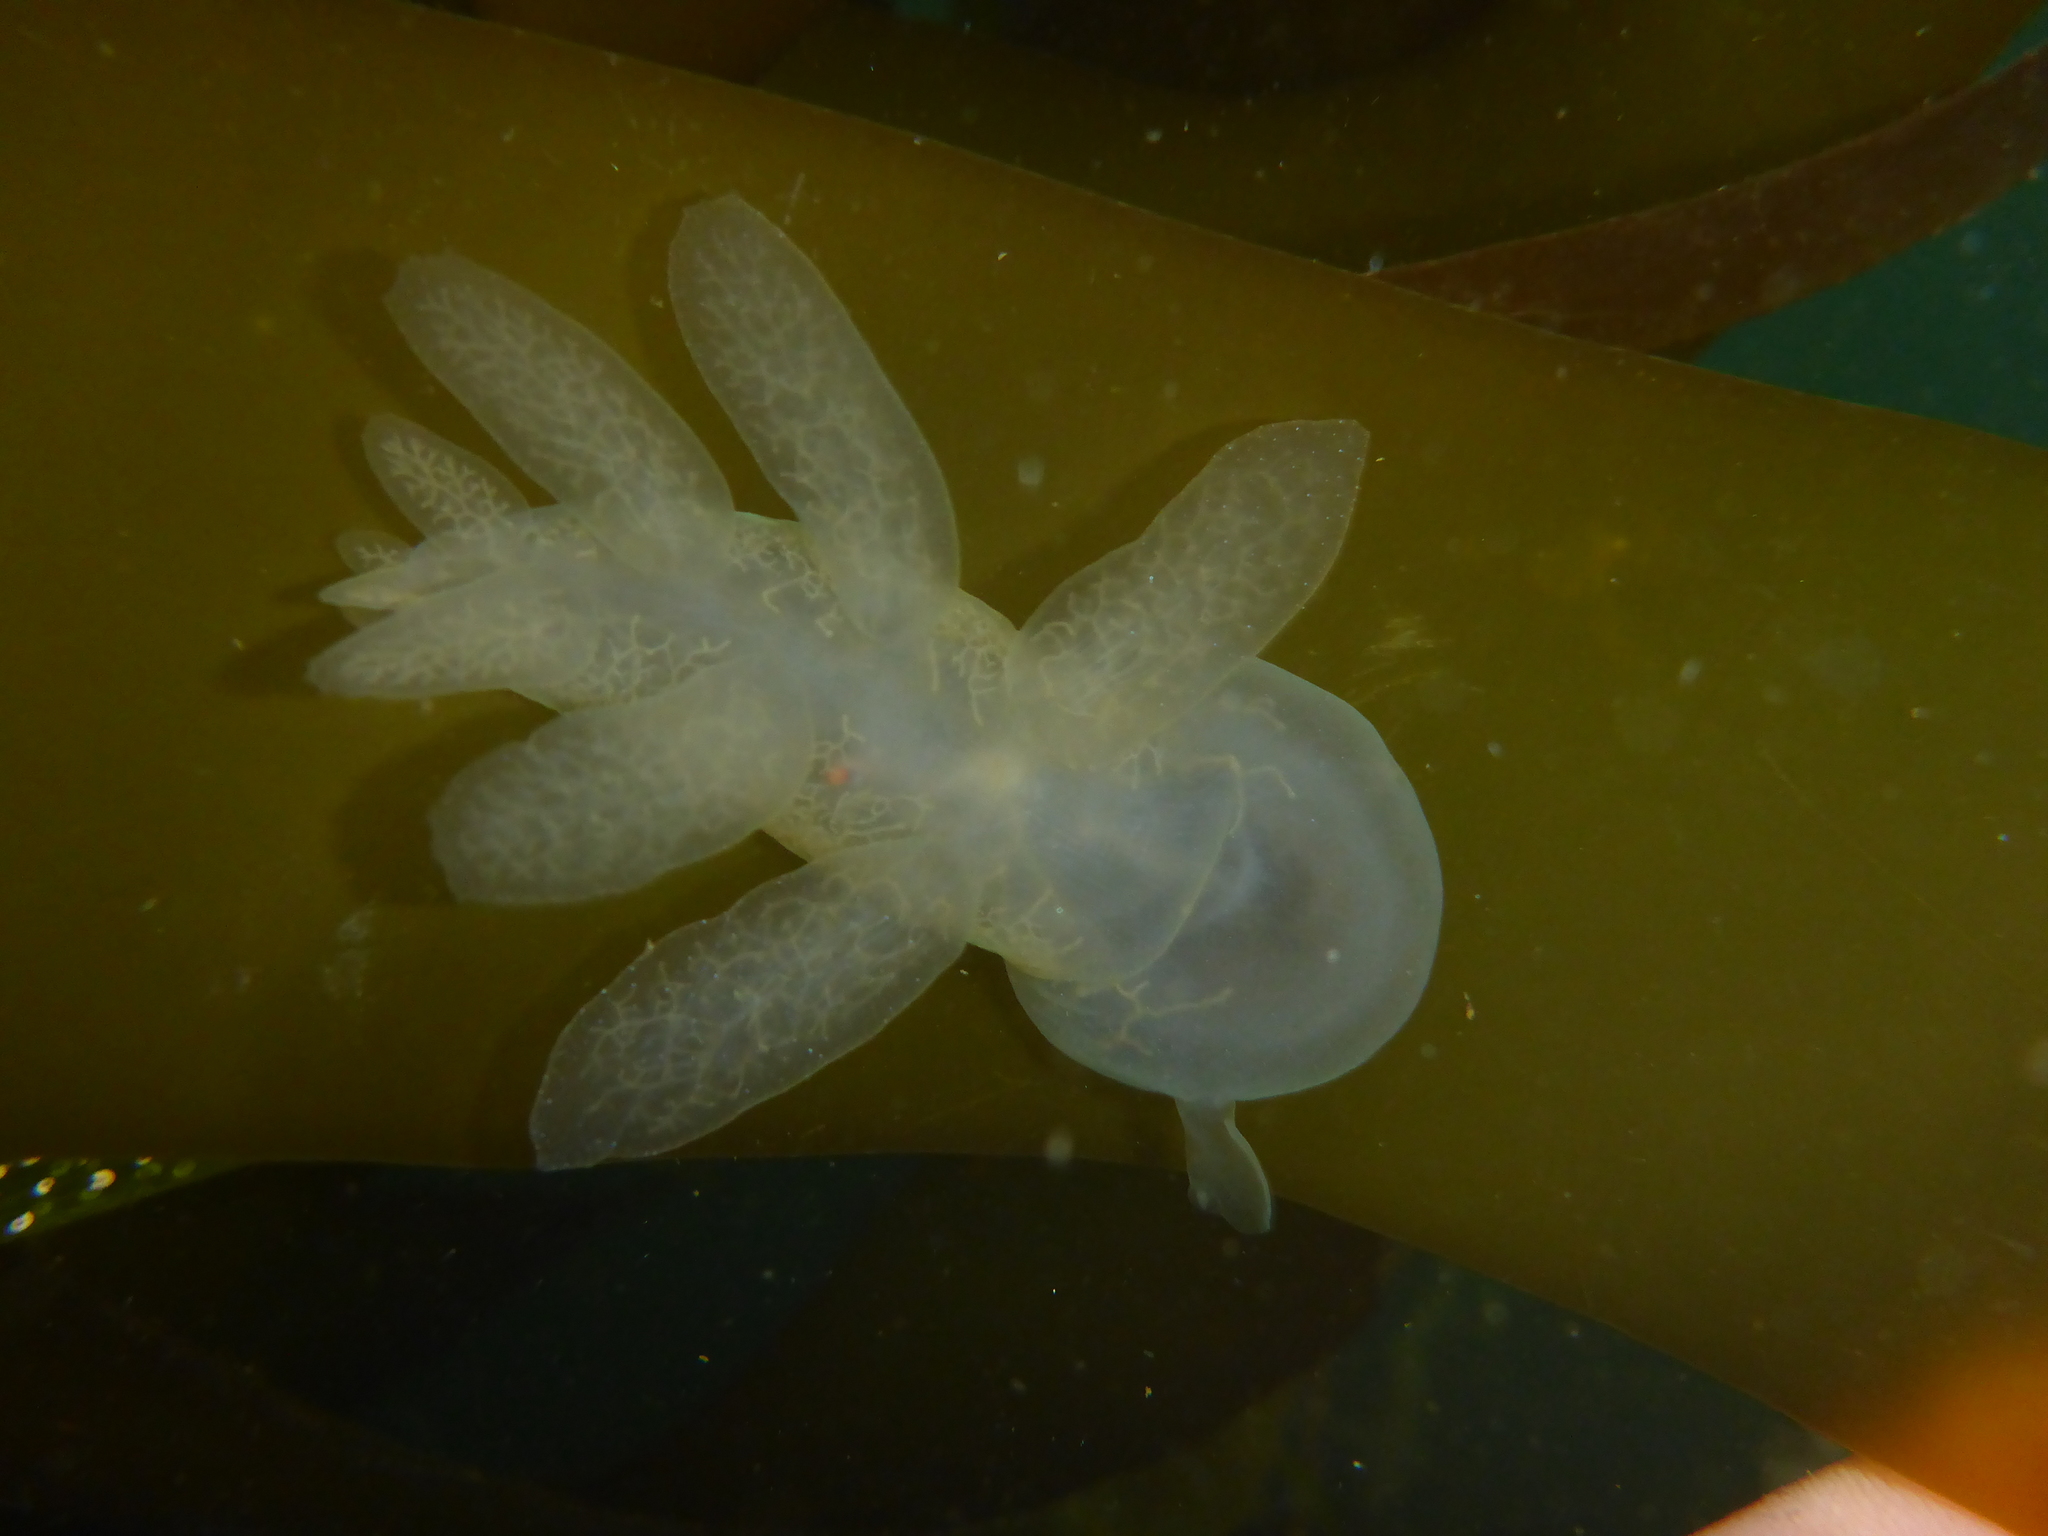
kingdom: Animalia
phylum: Mollusca
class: Gastropoda
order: Nudibranchia
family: Tethydidae
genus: Melibe
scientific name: Melibe leonina
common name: Lion nudibranch
